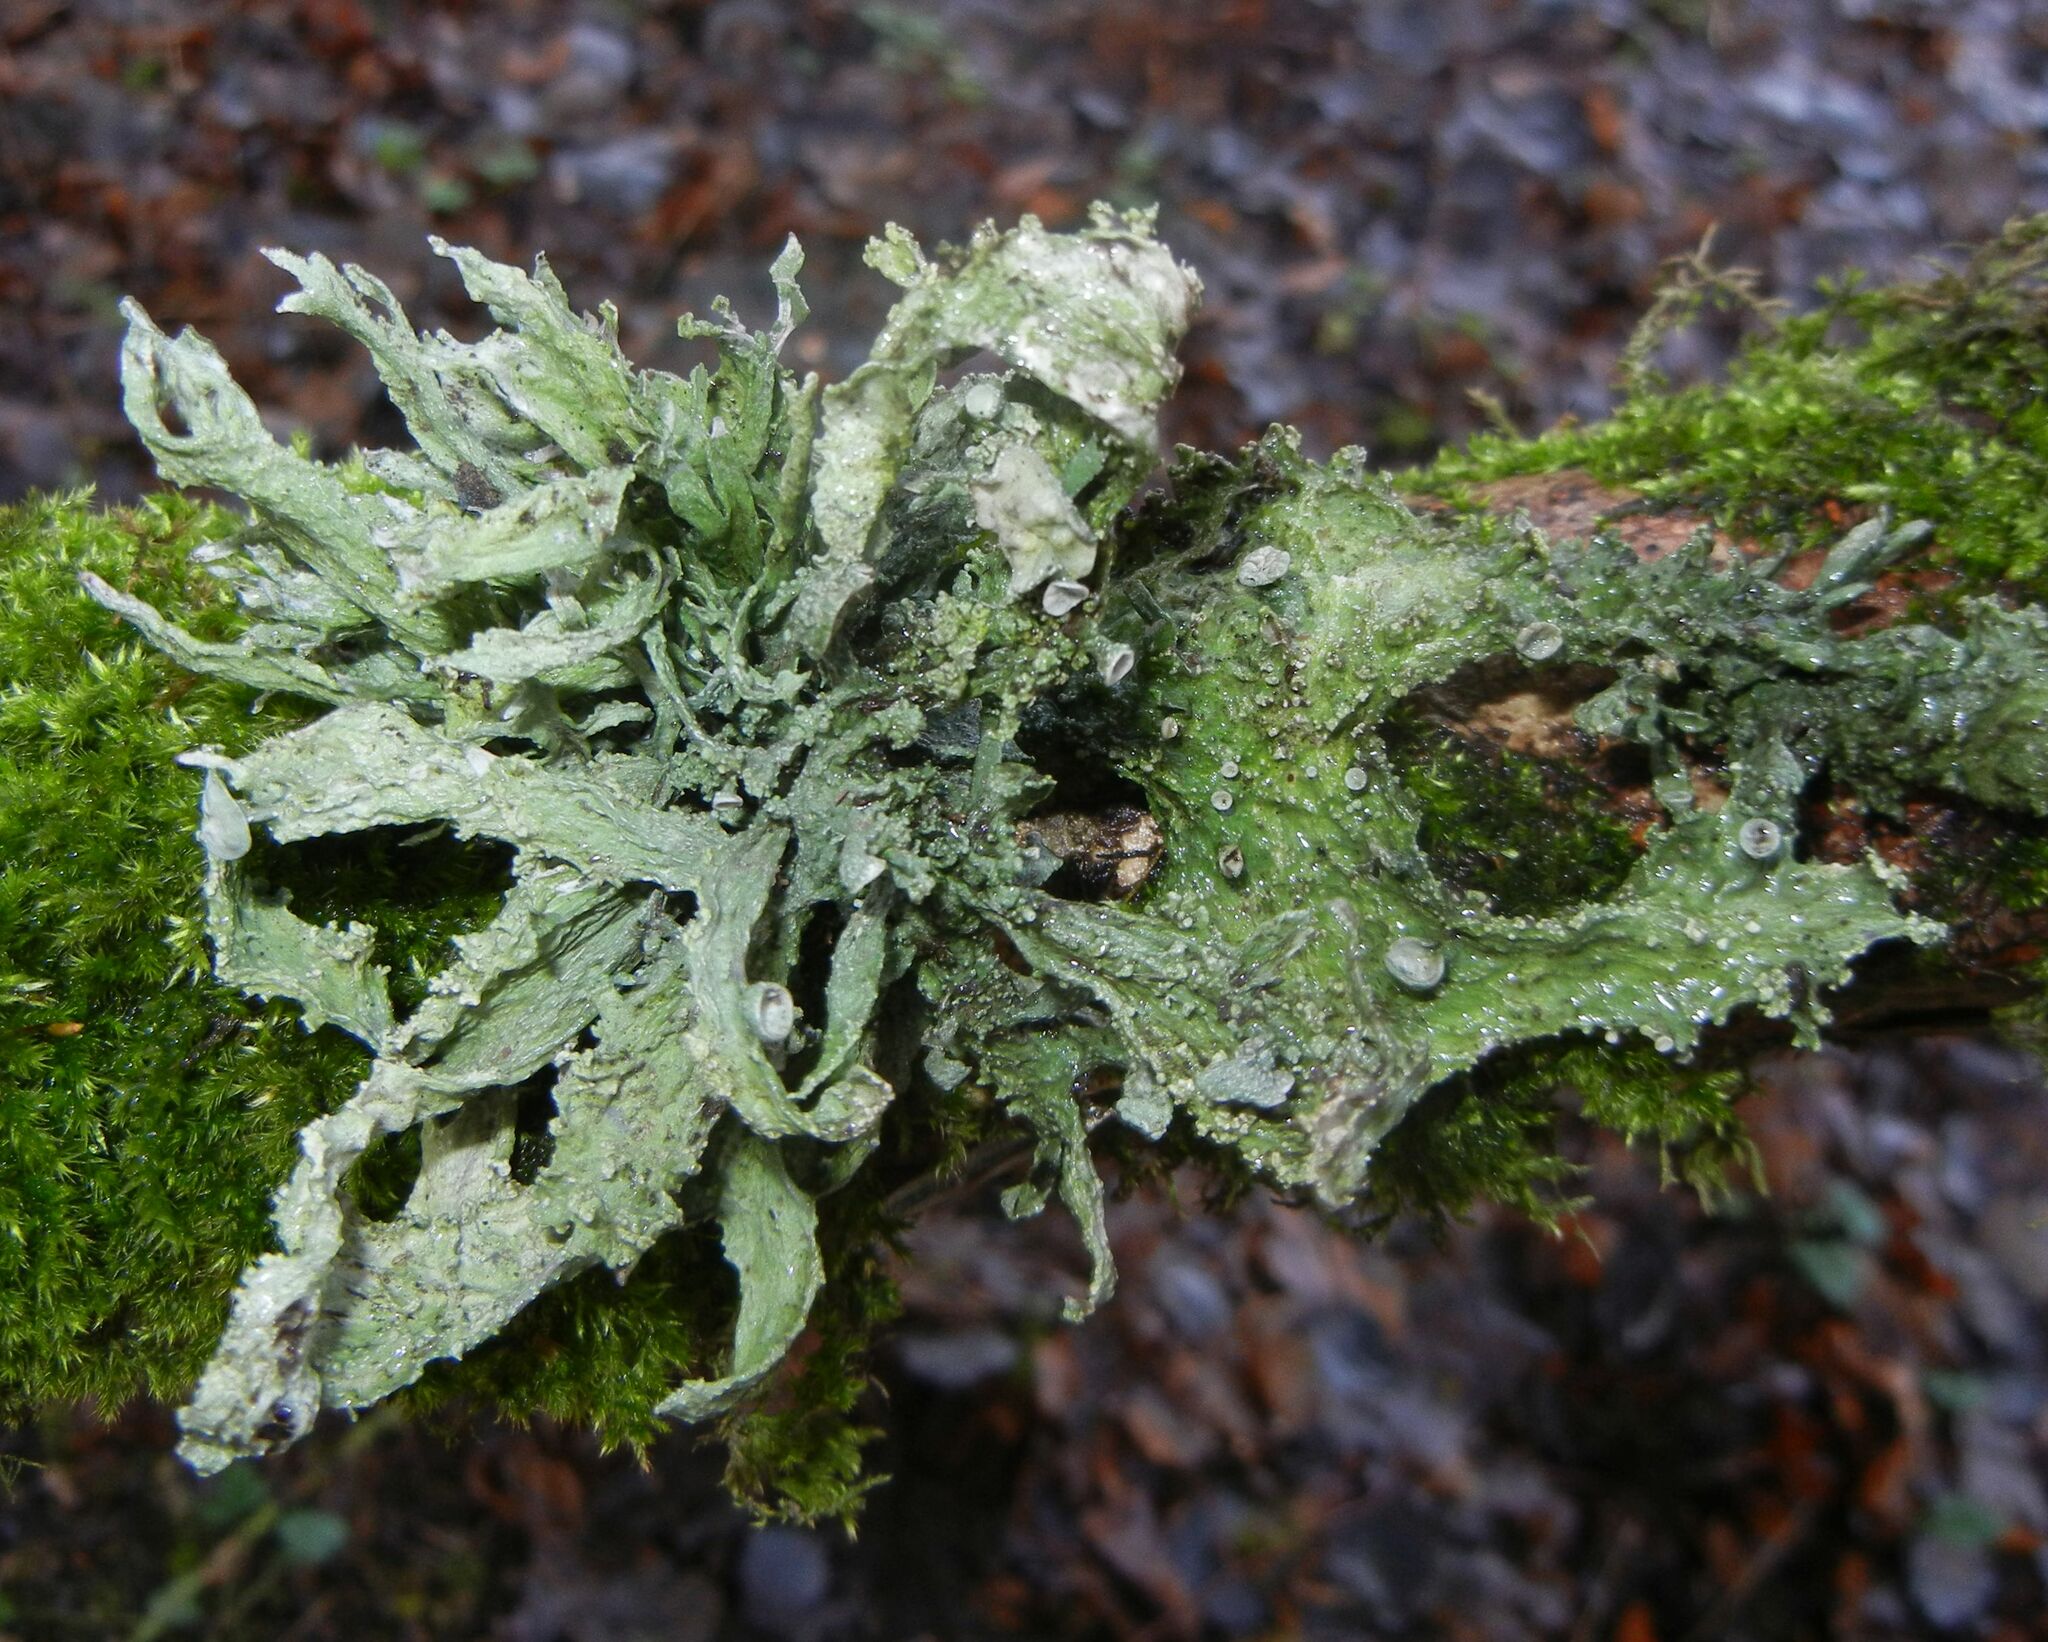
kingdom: Fungi
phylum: Ascomycota
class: Lecanoromycetes
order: Lecanorales
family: Ramalinaceae
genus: Ramalina
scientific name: Ramalina fraxinea
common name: Cartilage lichen
